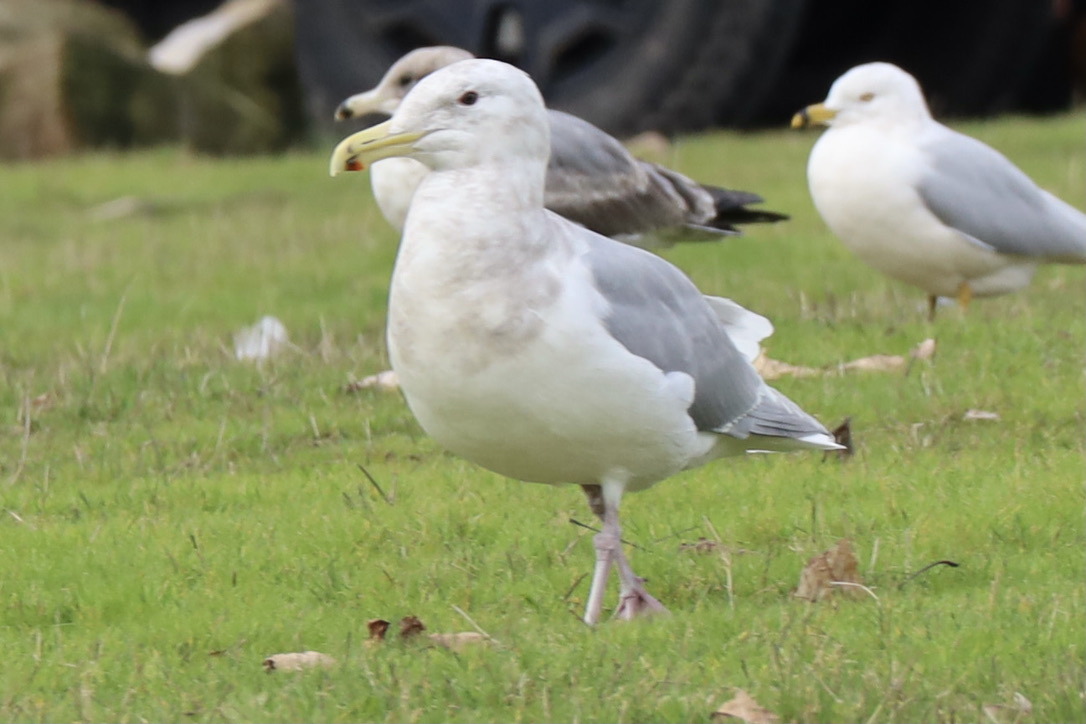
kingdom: Animalia
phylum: Chordata
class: Aves
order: Charadriiformes
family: Laridae
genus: Larus
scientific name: Larus glaucescens
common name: Glaucous-winged gull
